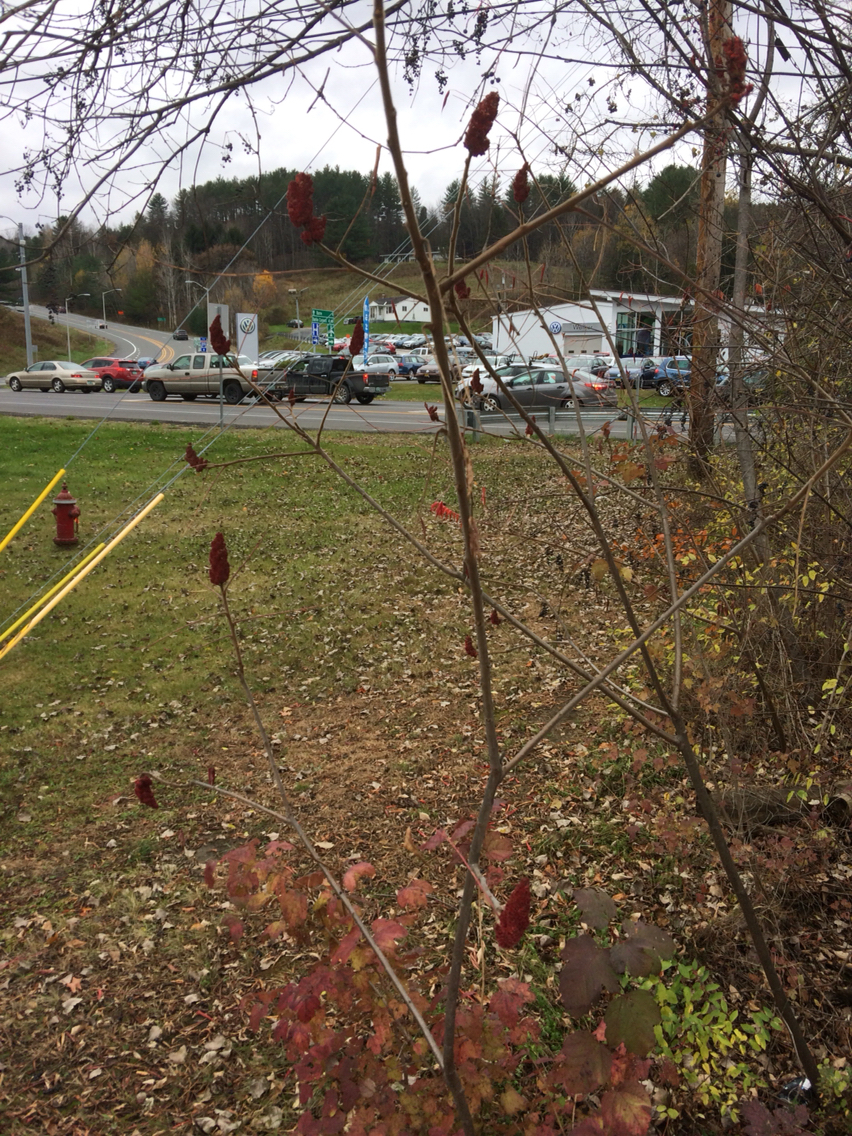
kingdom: Plantae
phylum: Tracheophyta
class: Magnoliopsida
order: Sapindales
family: Anacardiaceae
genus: Rhus
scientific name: Rhus typhina
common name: Staghorn sumac
